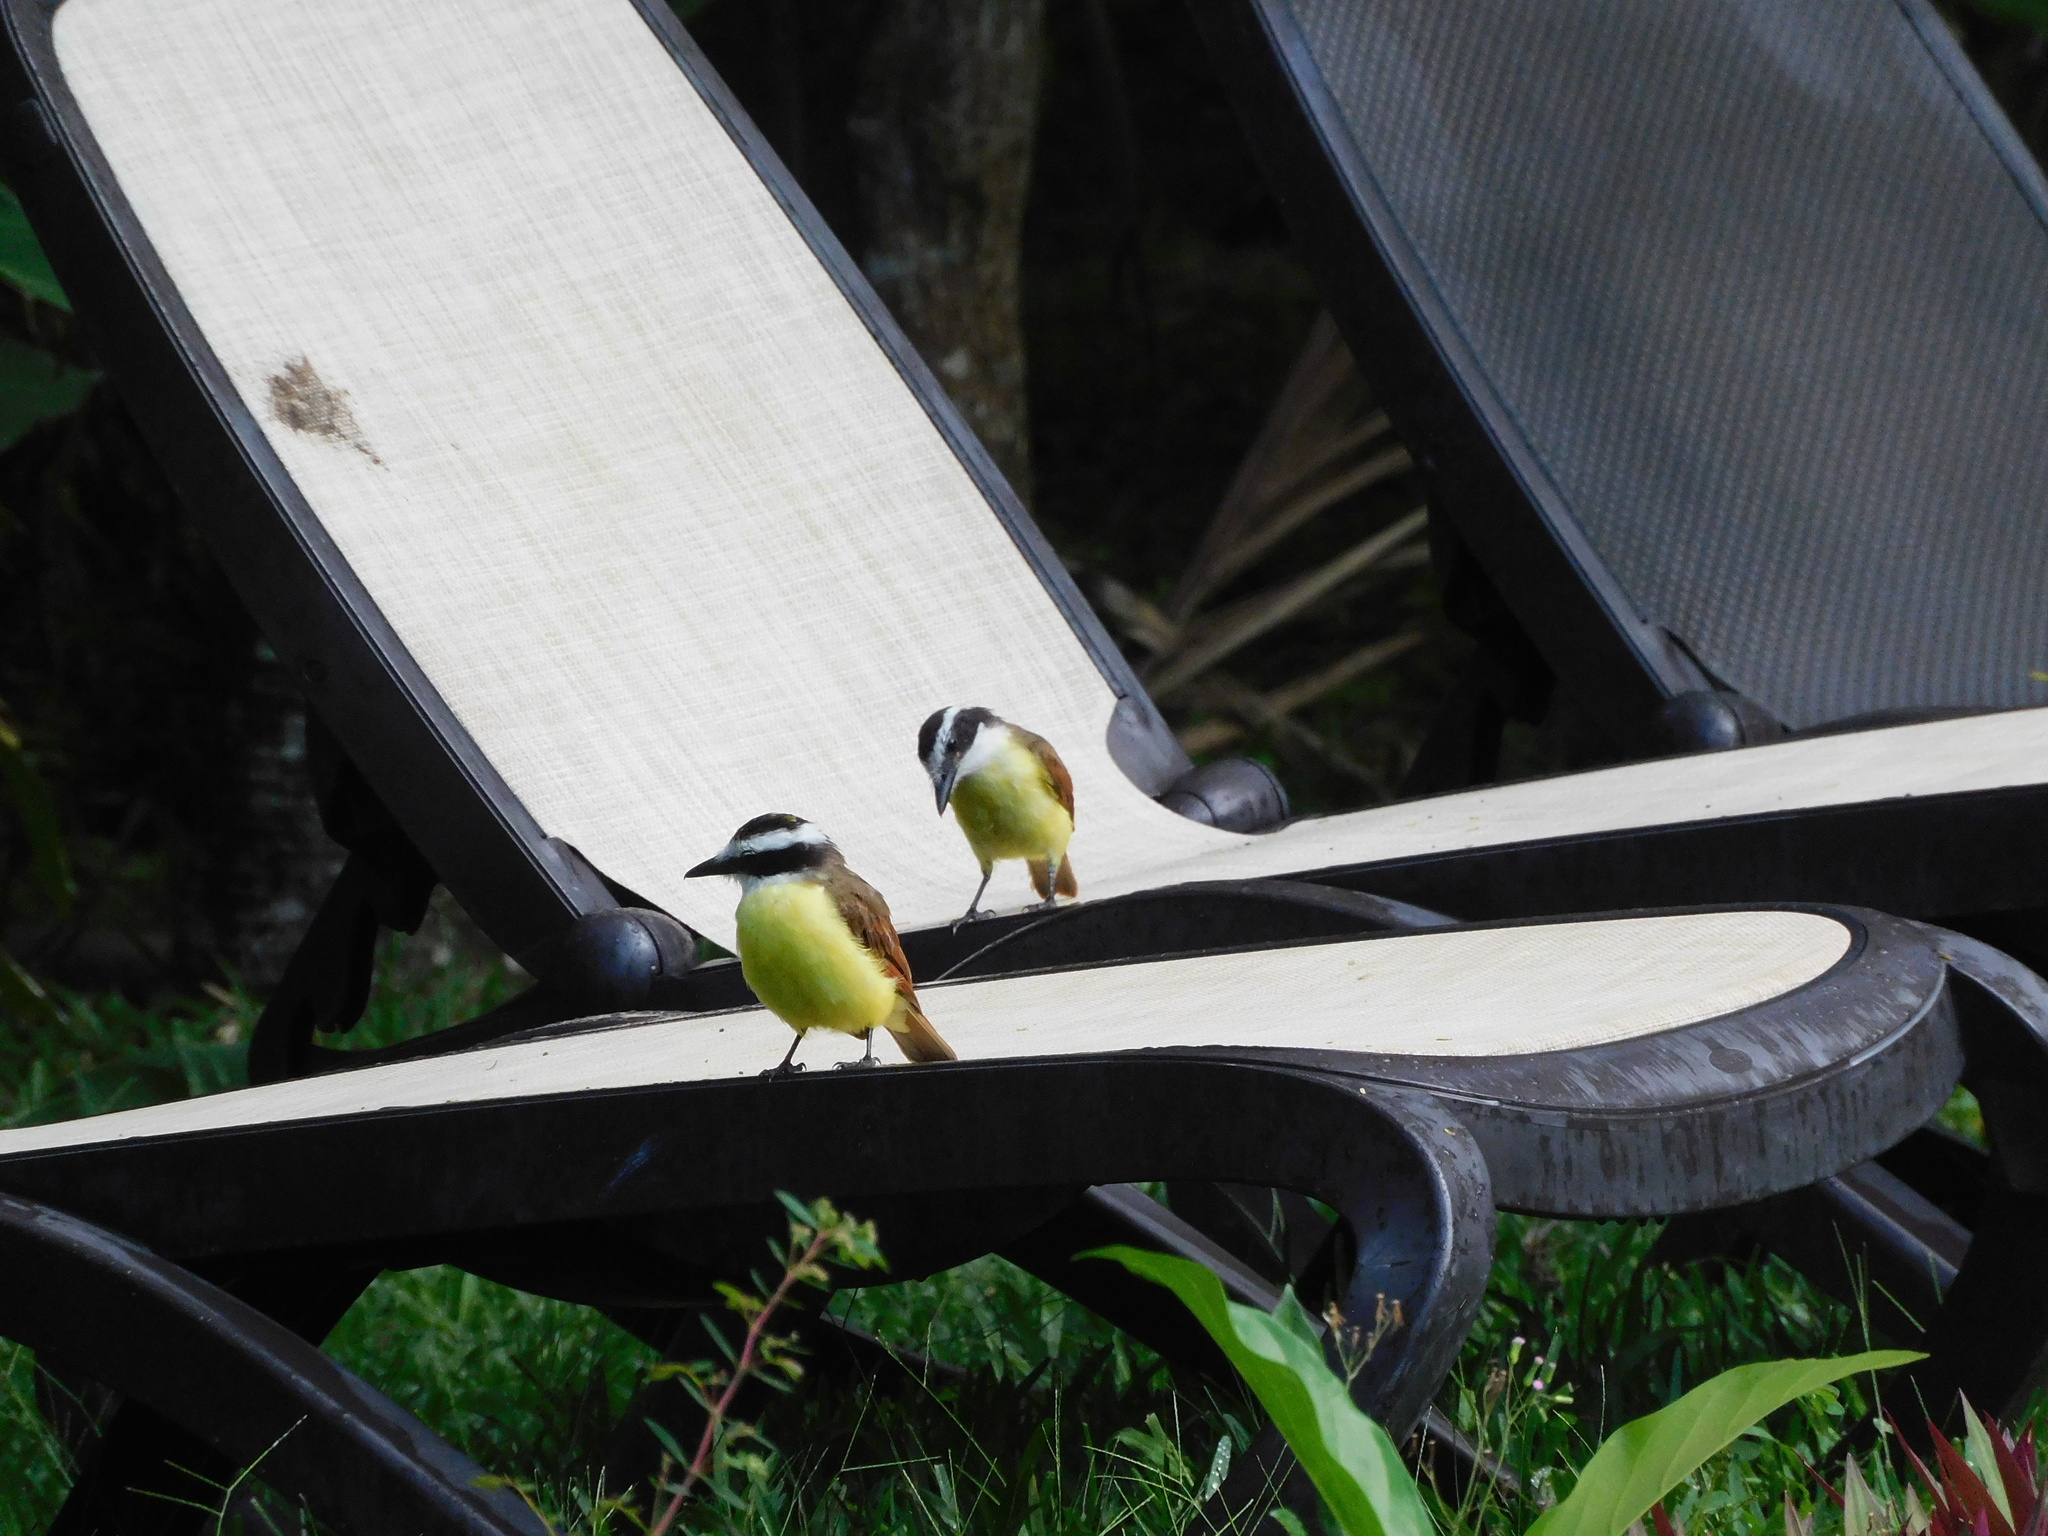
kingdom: Animalia
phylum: Chordata
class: Aves
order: Passeriformes
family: Tyrannidae
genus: Pitangus
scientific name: Pitangus sulphuratus
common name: Great kiskadee
